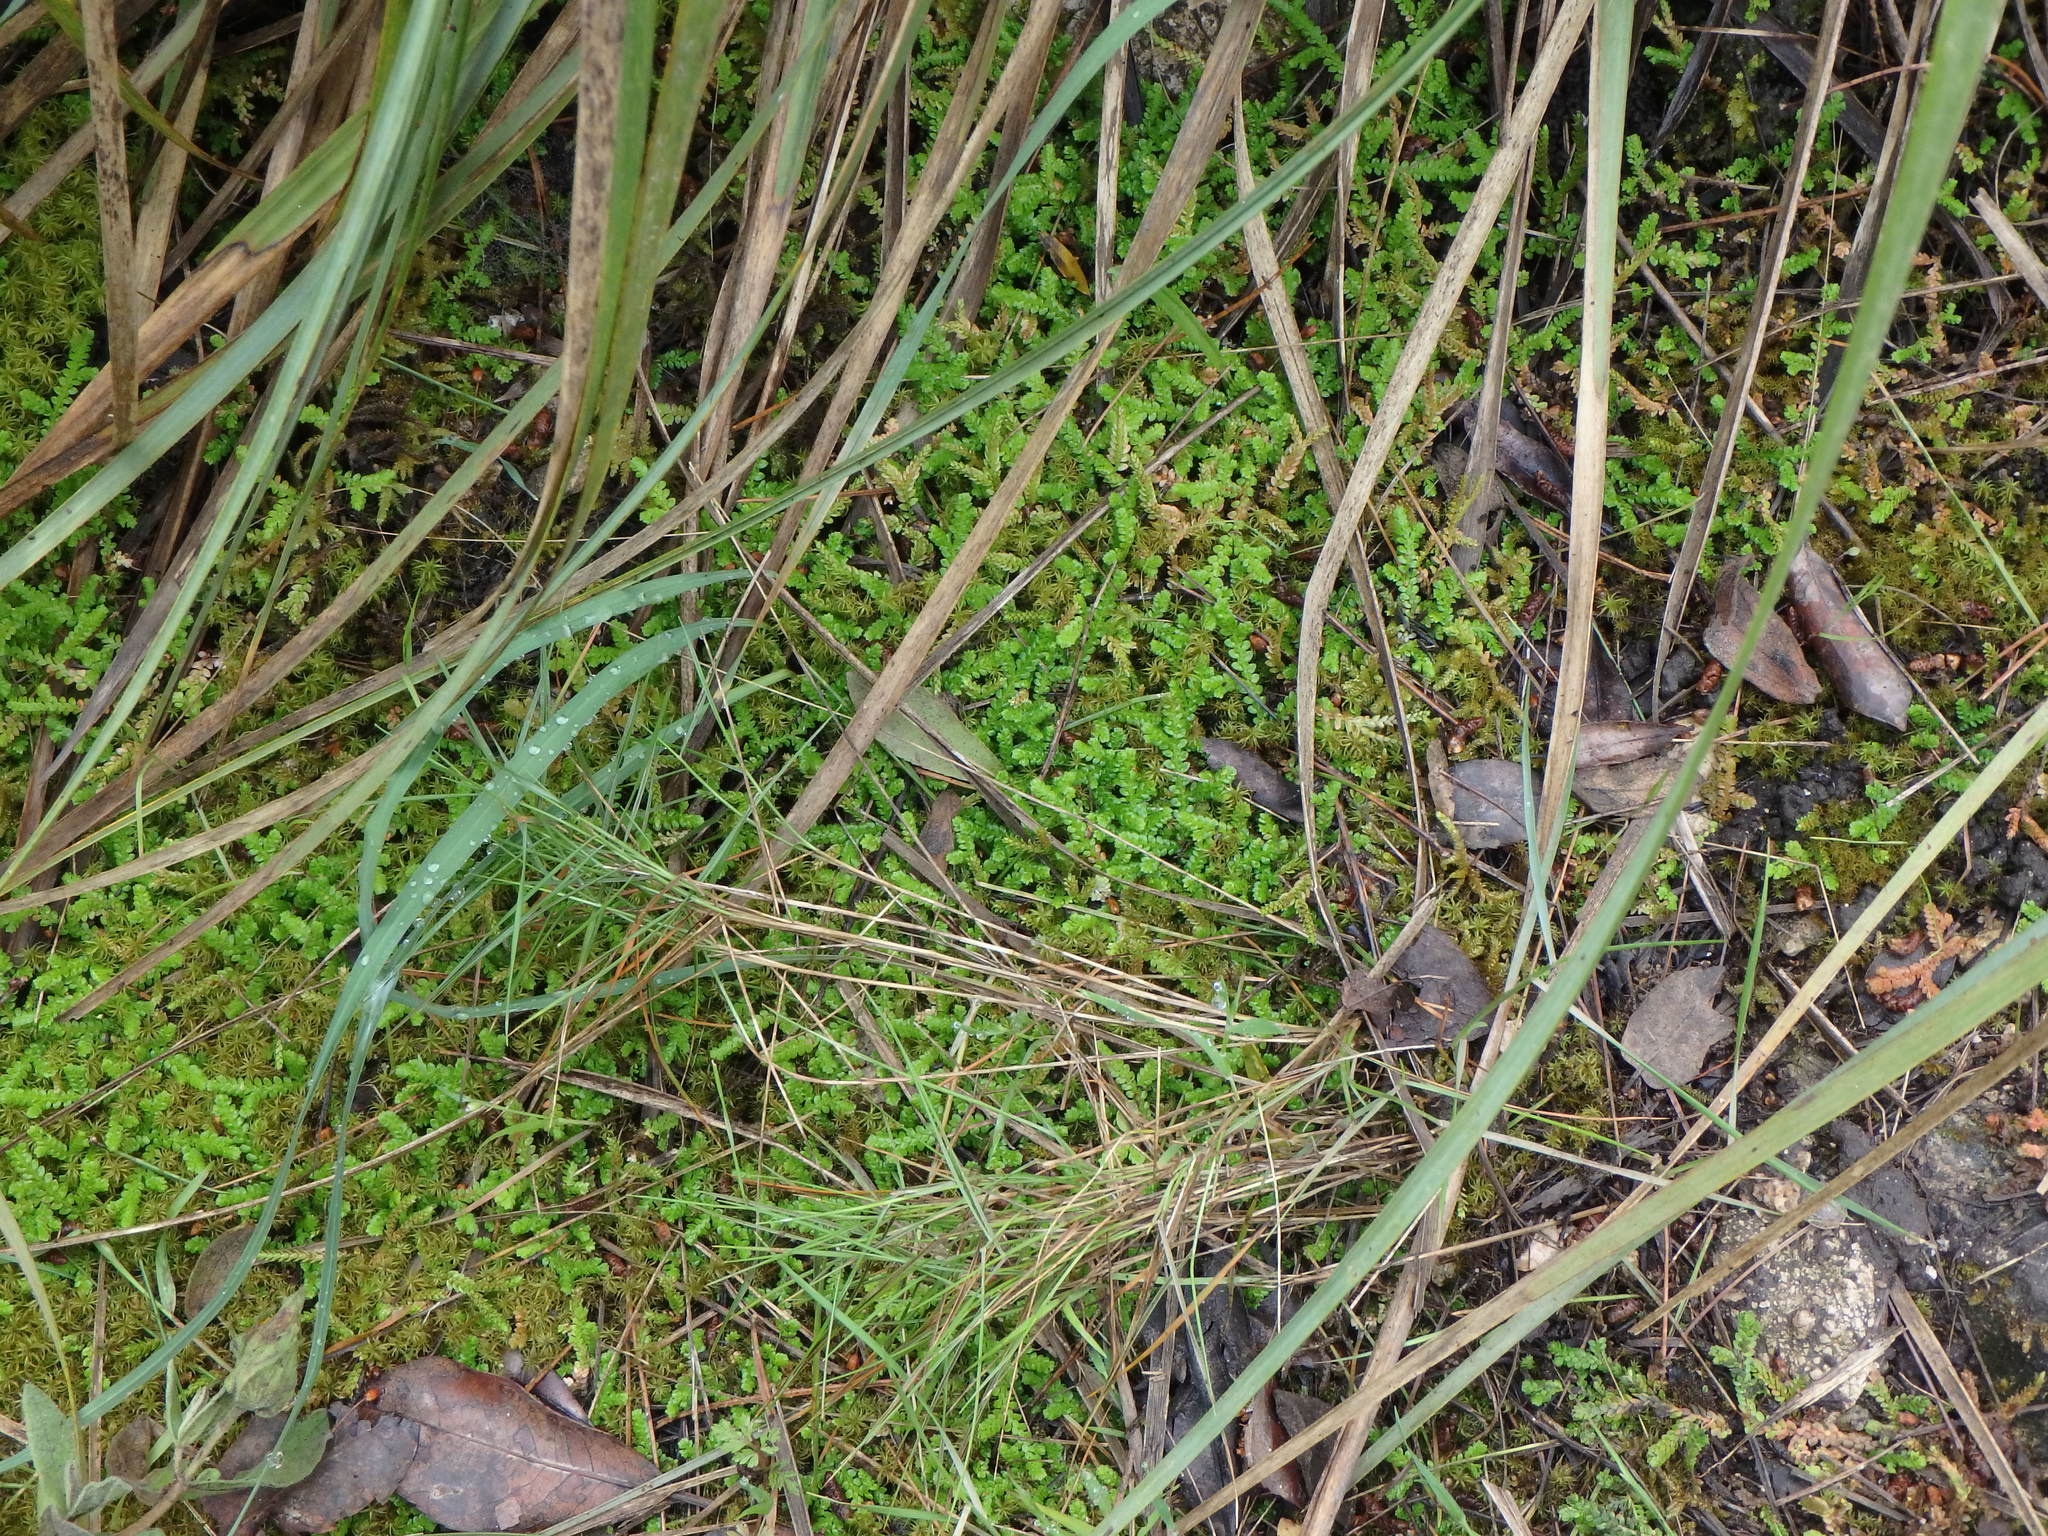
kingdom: Plantae
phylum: Tracheophyta
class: Lycopodiopsida
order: Selaginellales
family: Selaginellaceae
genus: Selaginella
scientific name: Selaginella denticulata
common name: Toothed-leaved clubmoss
